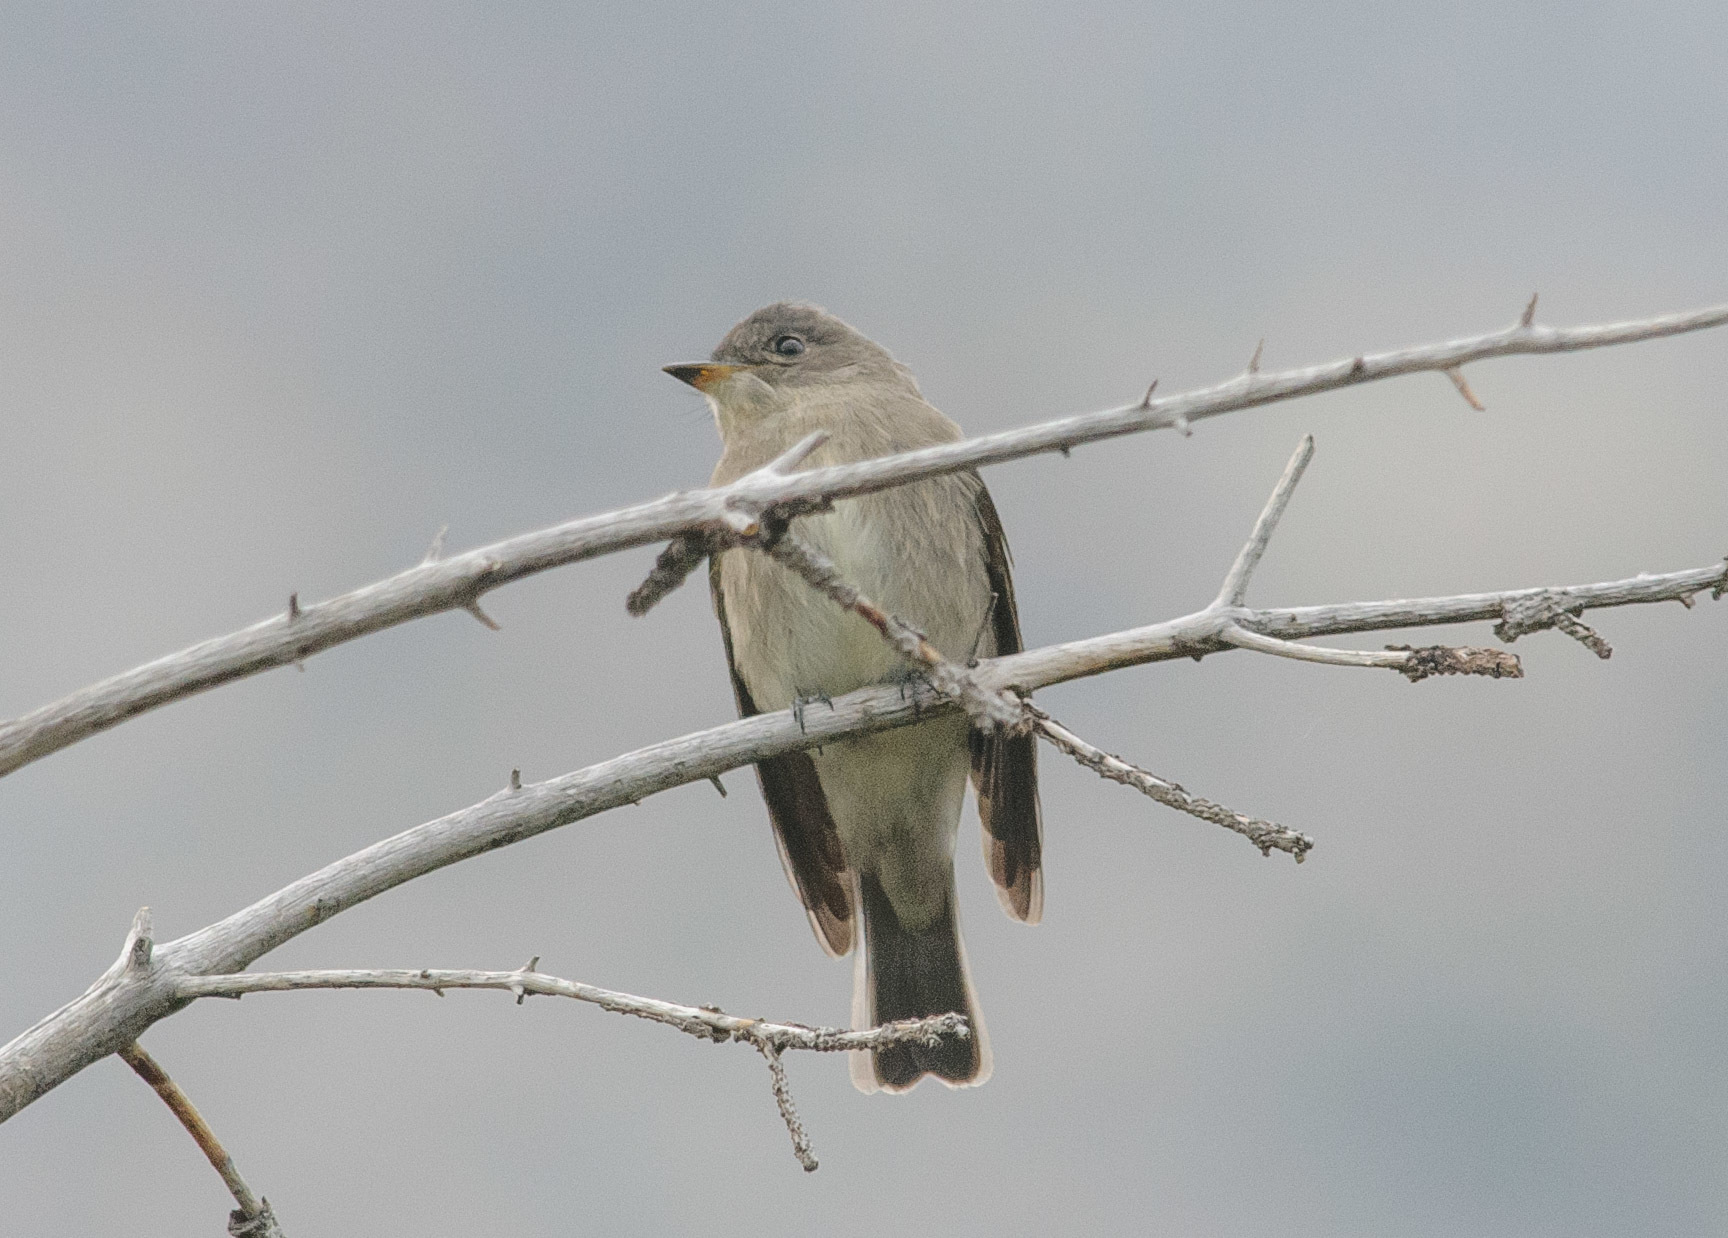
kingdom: Animalia
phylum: Chordata
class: Aves
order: Passeriformes
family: Tyrannidae
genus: Contopus
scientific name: Contopus sordidulus
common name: Western wood-pewee
